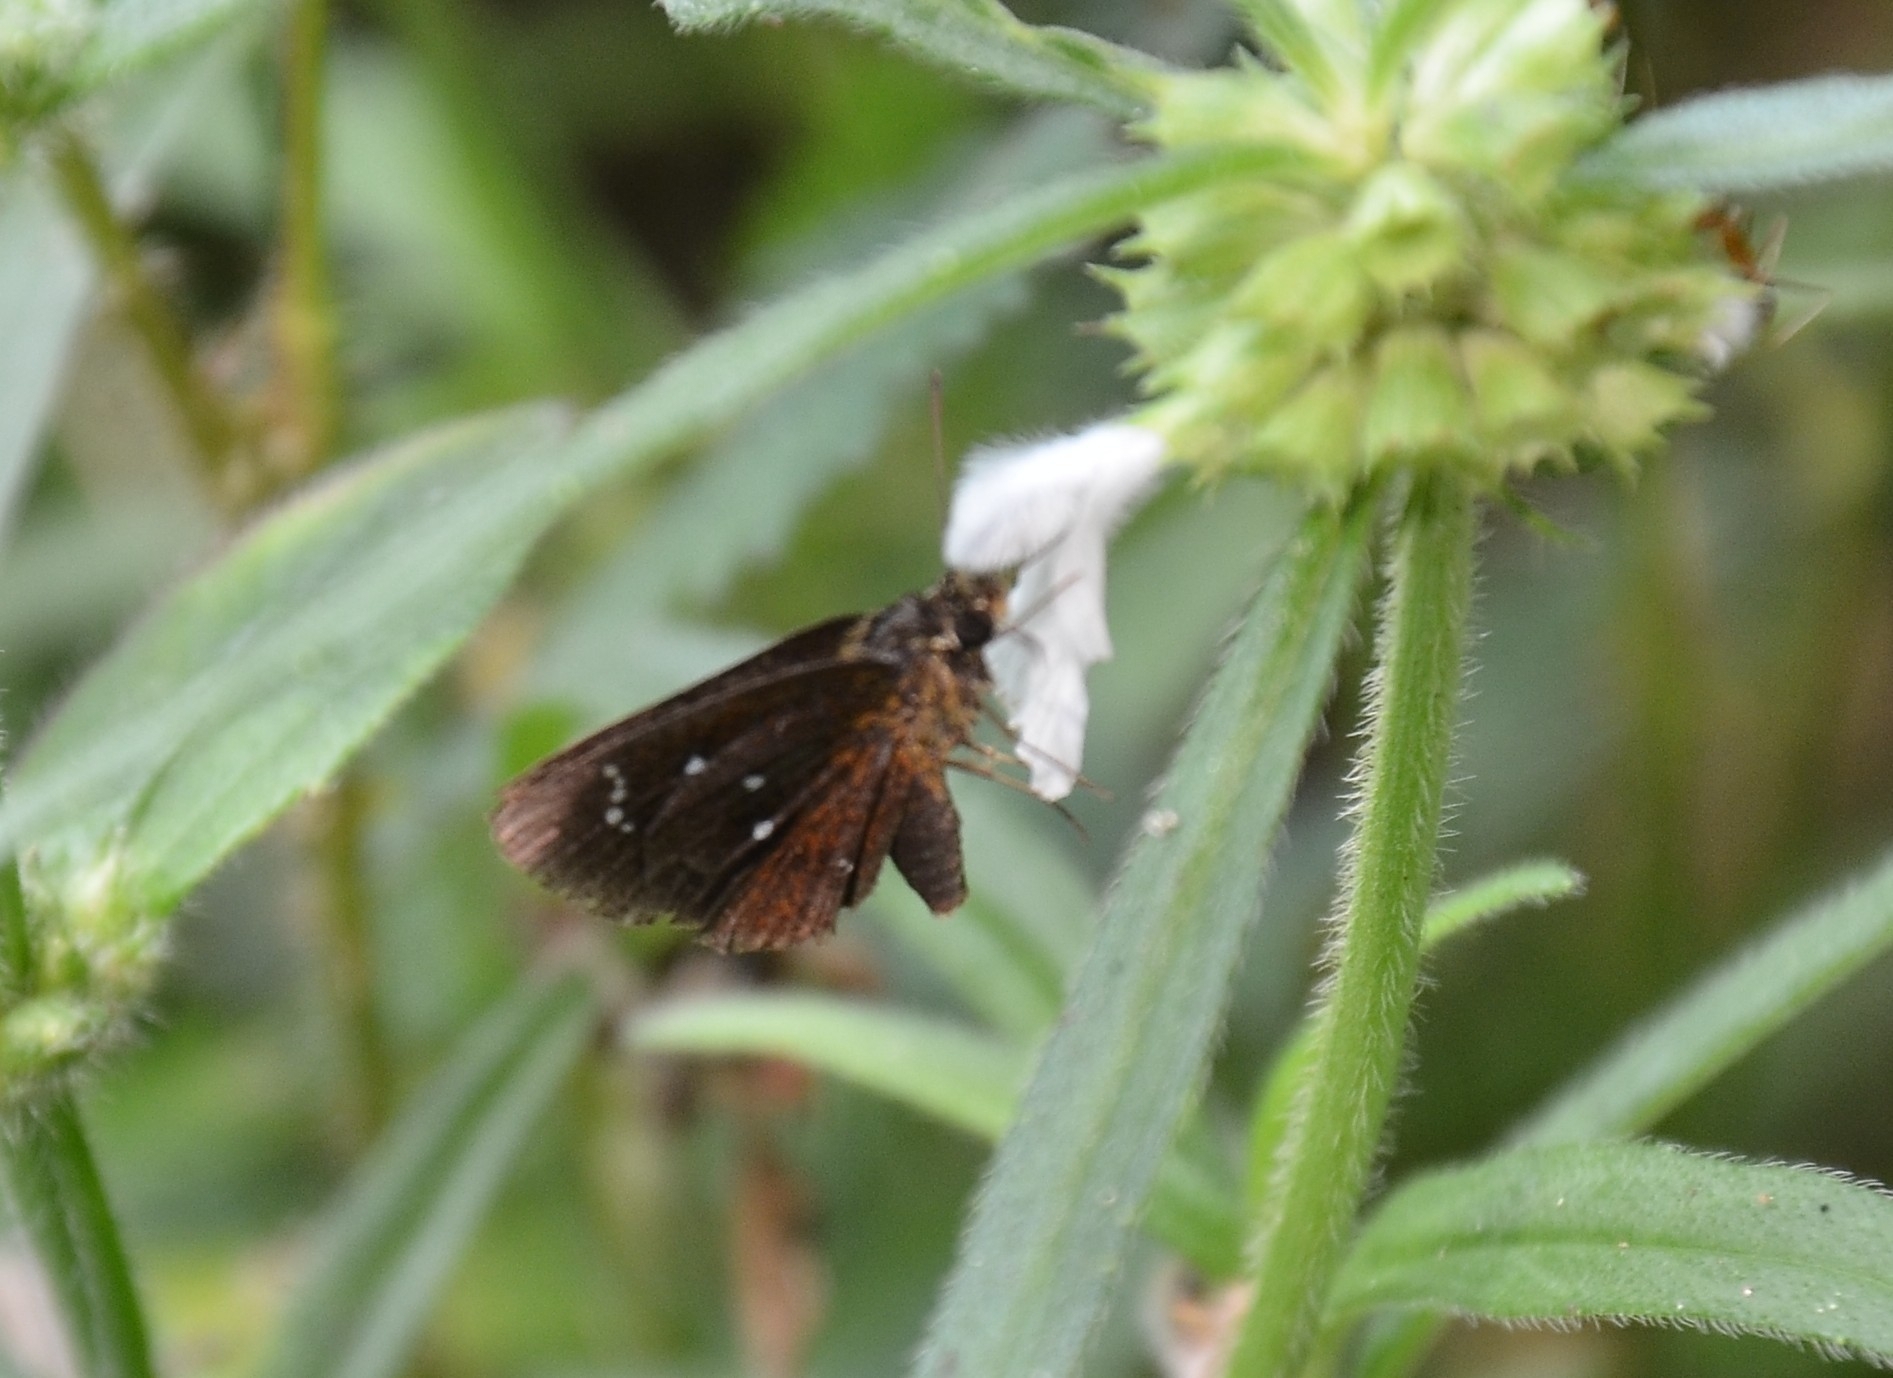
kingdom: Animalia
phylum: Arthropoda
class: Insecta
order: Lepidoptera
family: Hesperiidae
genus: Iambrix
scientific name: Iambrix salsala
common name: Chestnut bob
